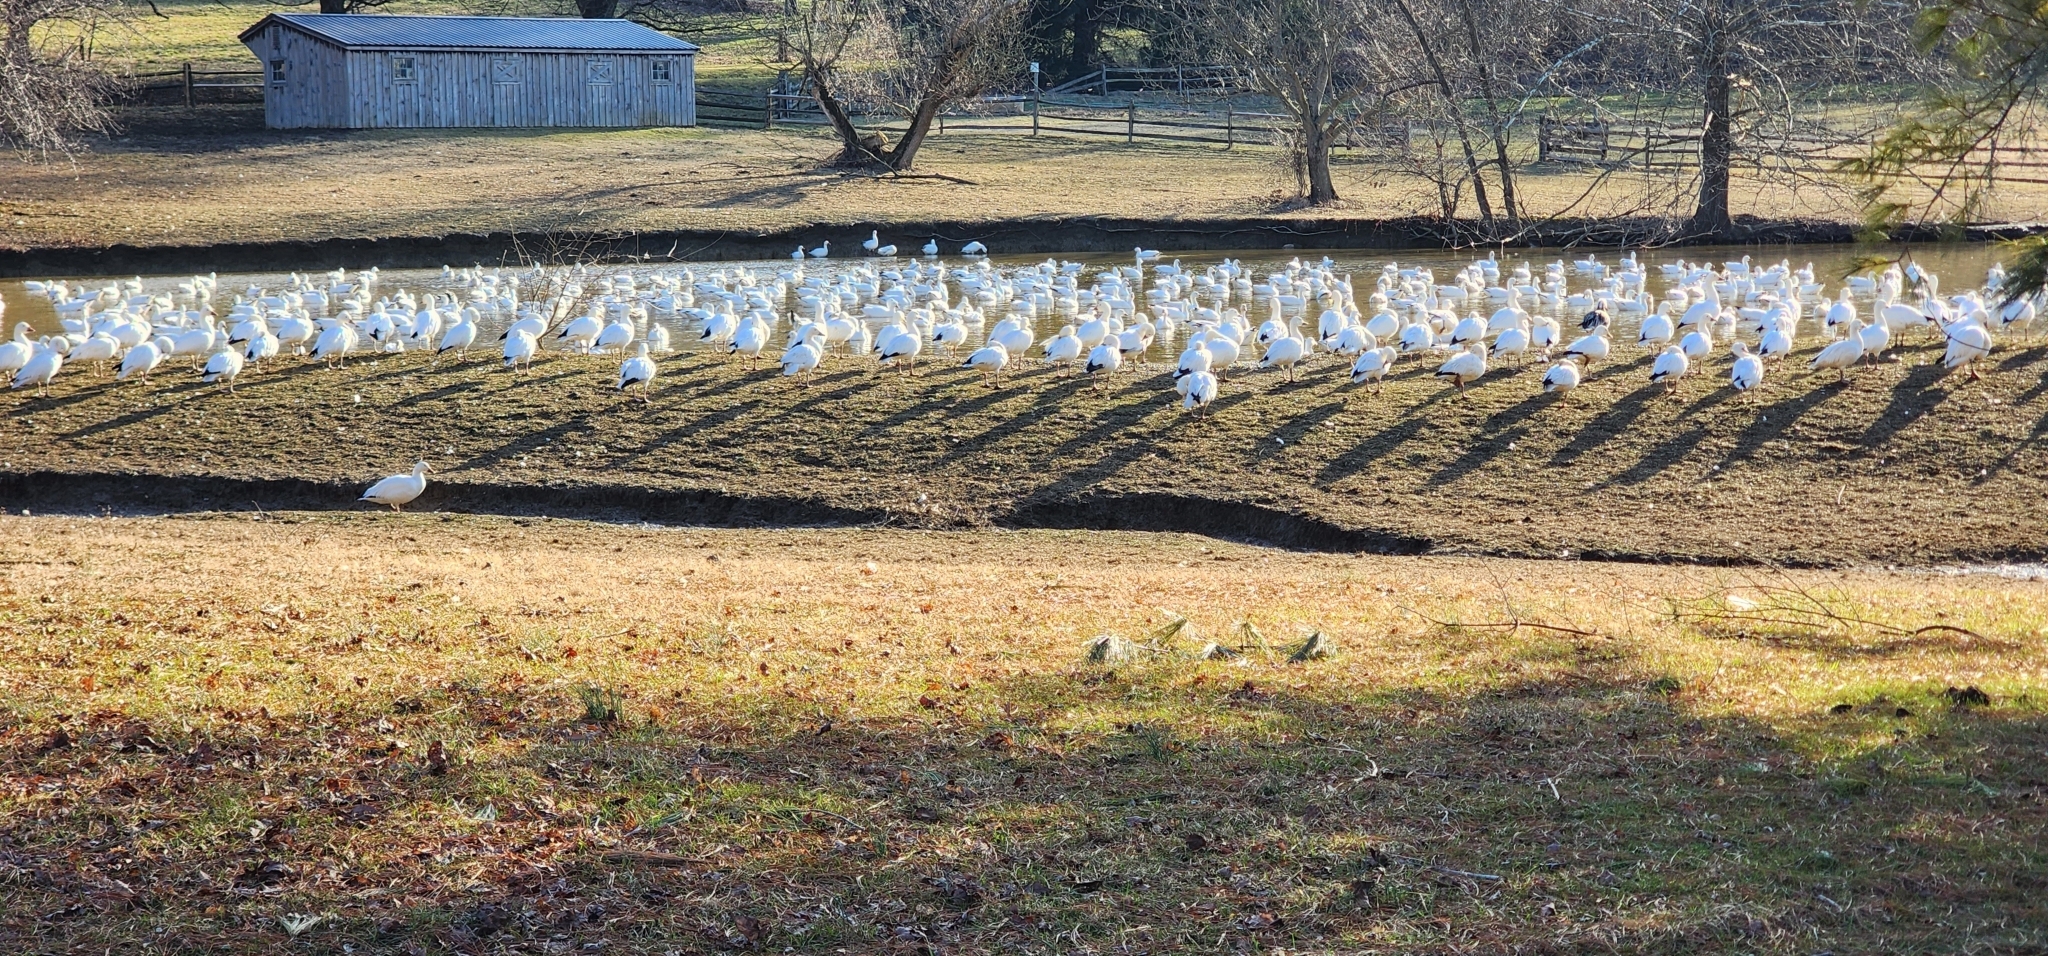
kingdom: Animalia
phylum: Chordata
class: Aves
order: Anseriformes
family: Anatidae
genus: Anser
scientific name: Anser caerulescens
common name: Snow goose
